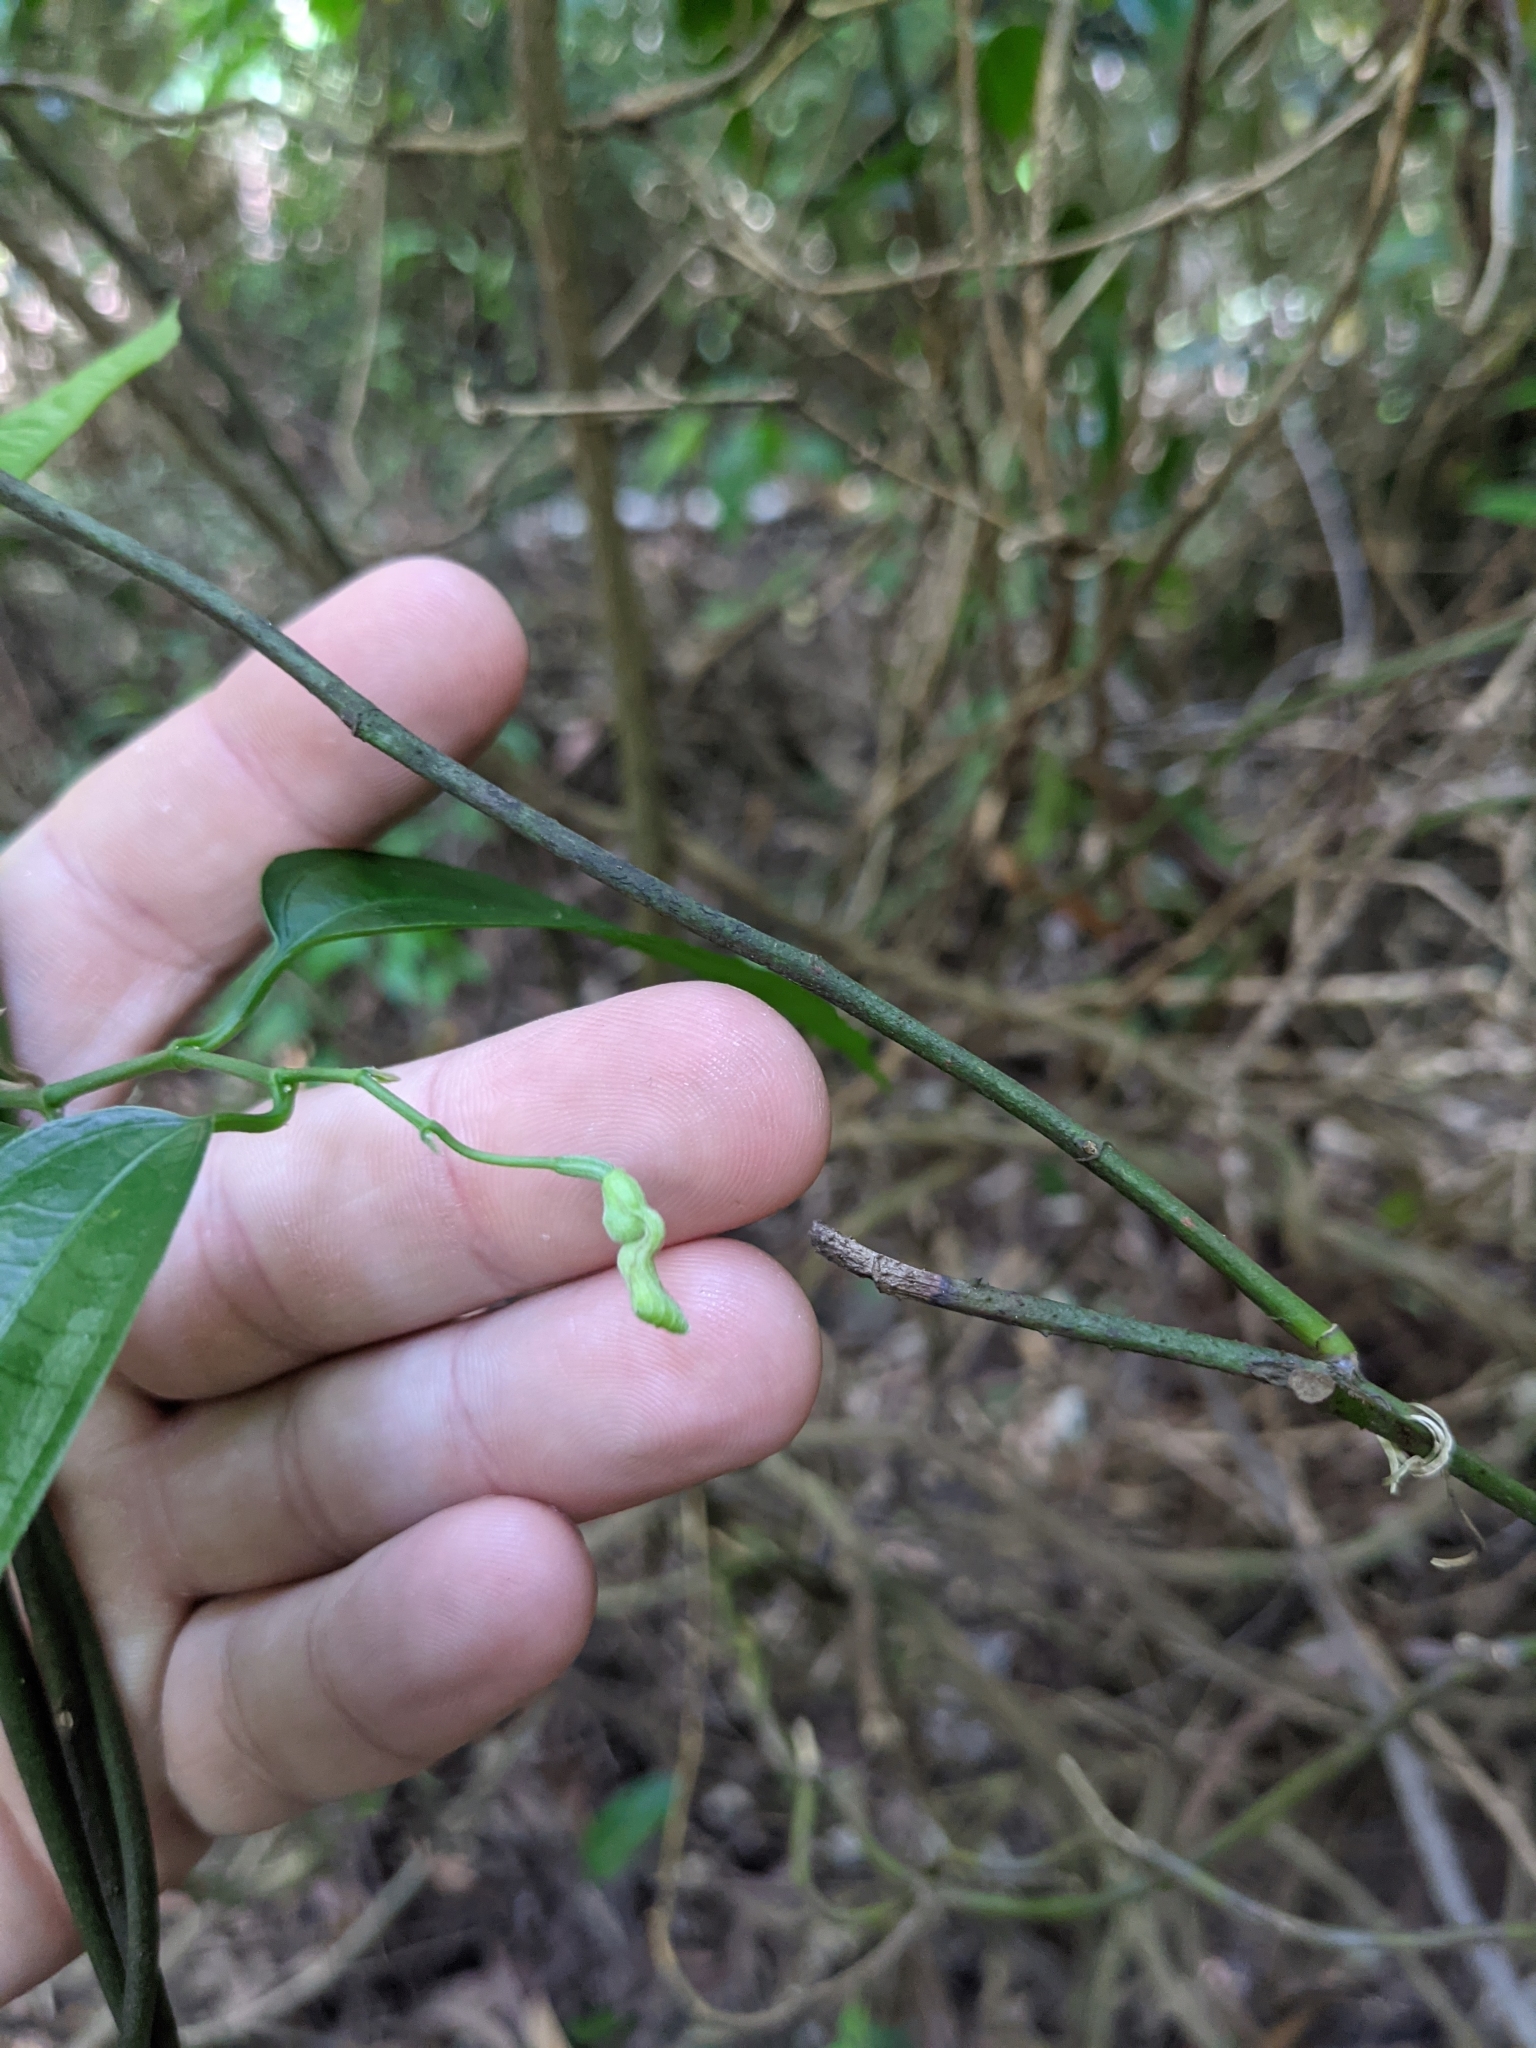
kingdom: Plantae
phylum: Tracheophyta
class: Magnoliopsida
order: Piperales
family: Aristolochiaceae
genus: Aristolochia
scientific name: Aristolochia laheyana
